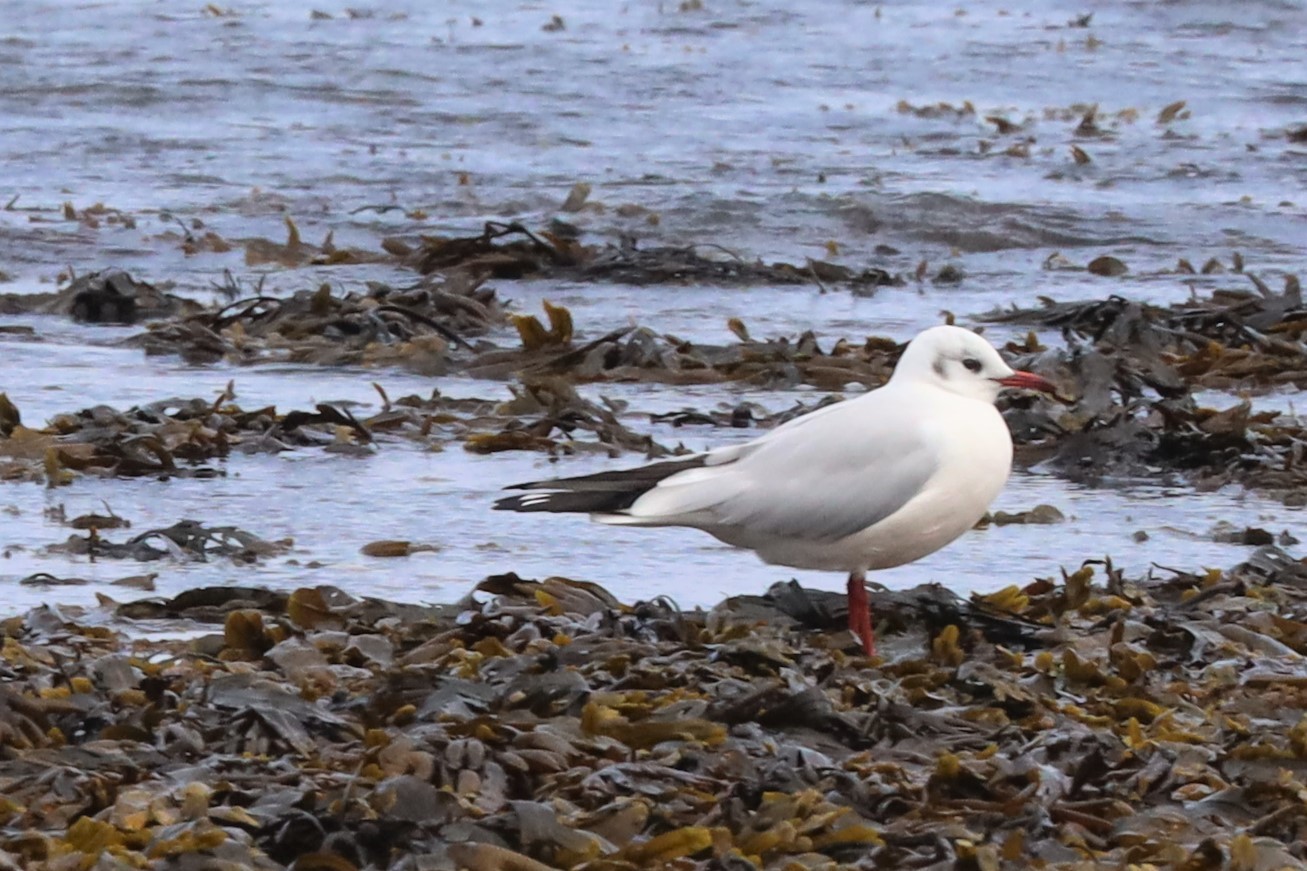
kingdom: Animalia
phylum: Chordata
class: Aves
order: Charadriiformes
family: Laridae
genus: Chroicocephalus
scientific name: Chroicocephalus ridibundus
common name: Black-headed gull
